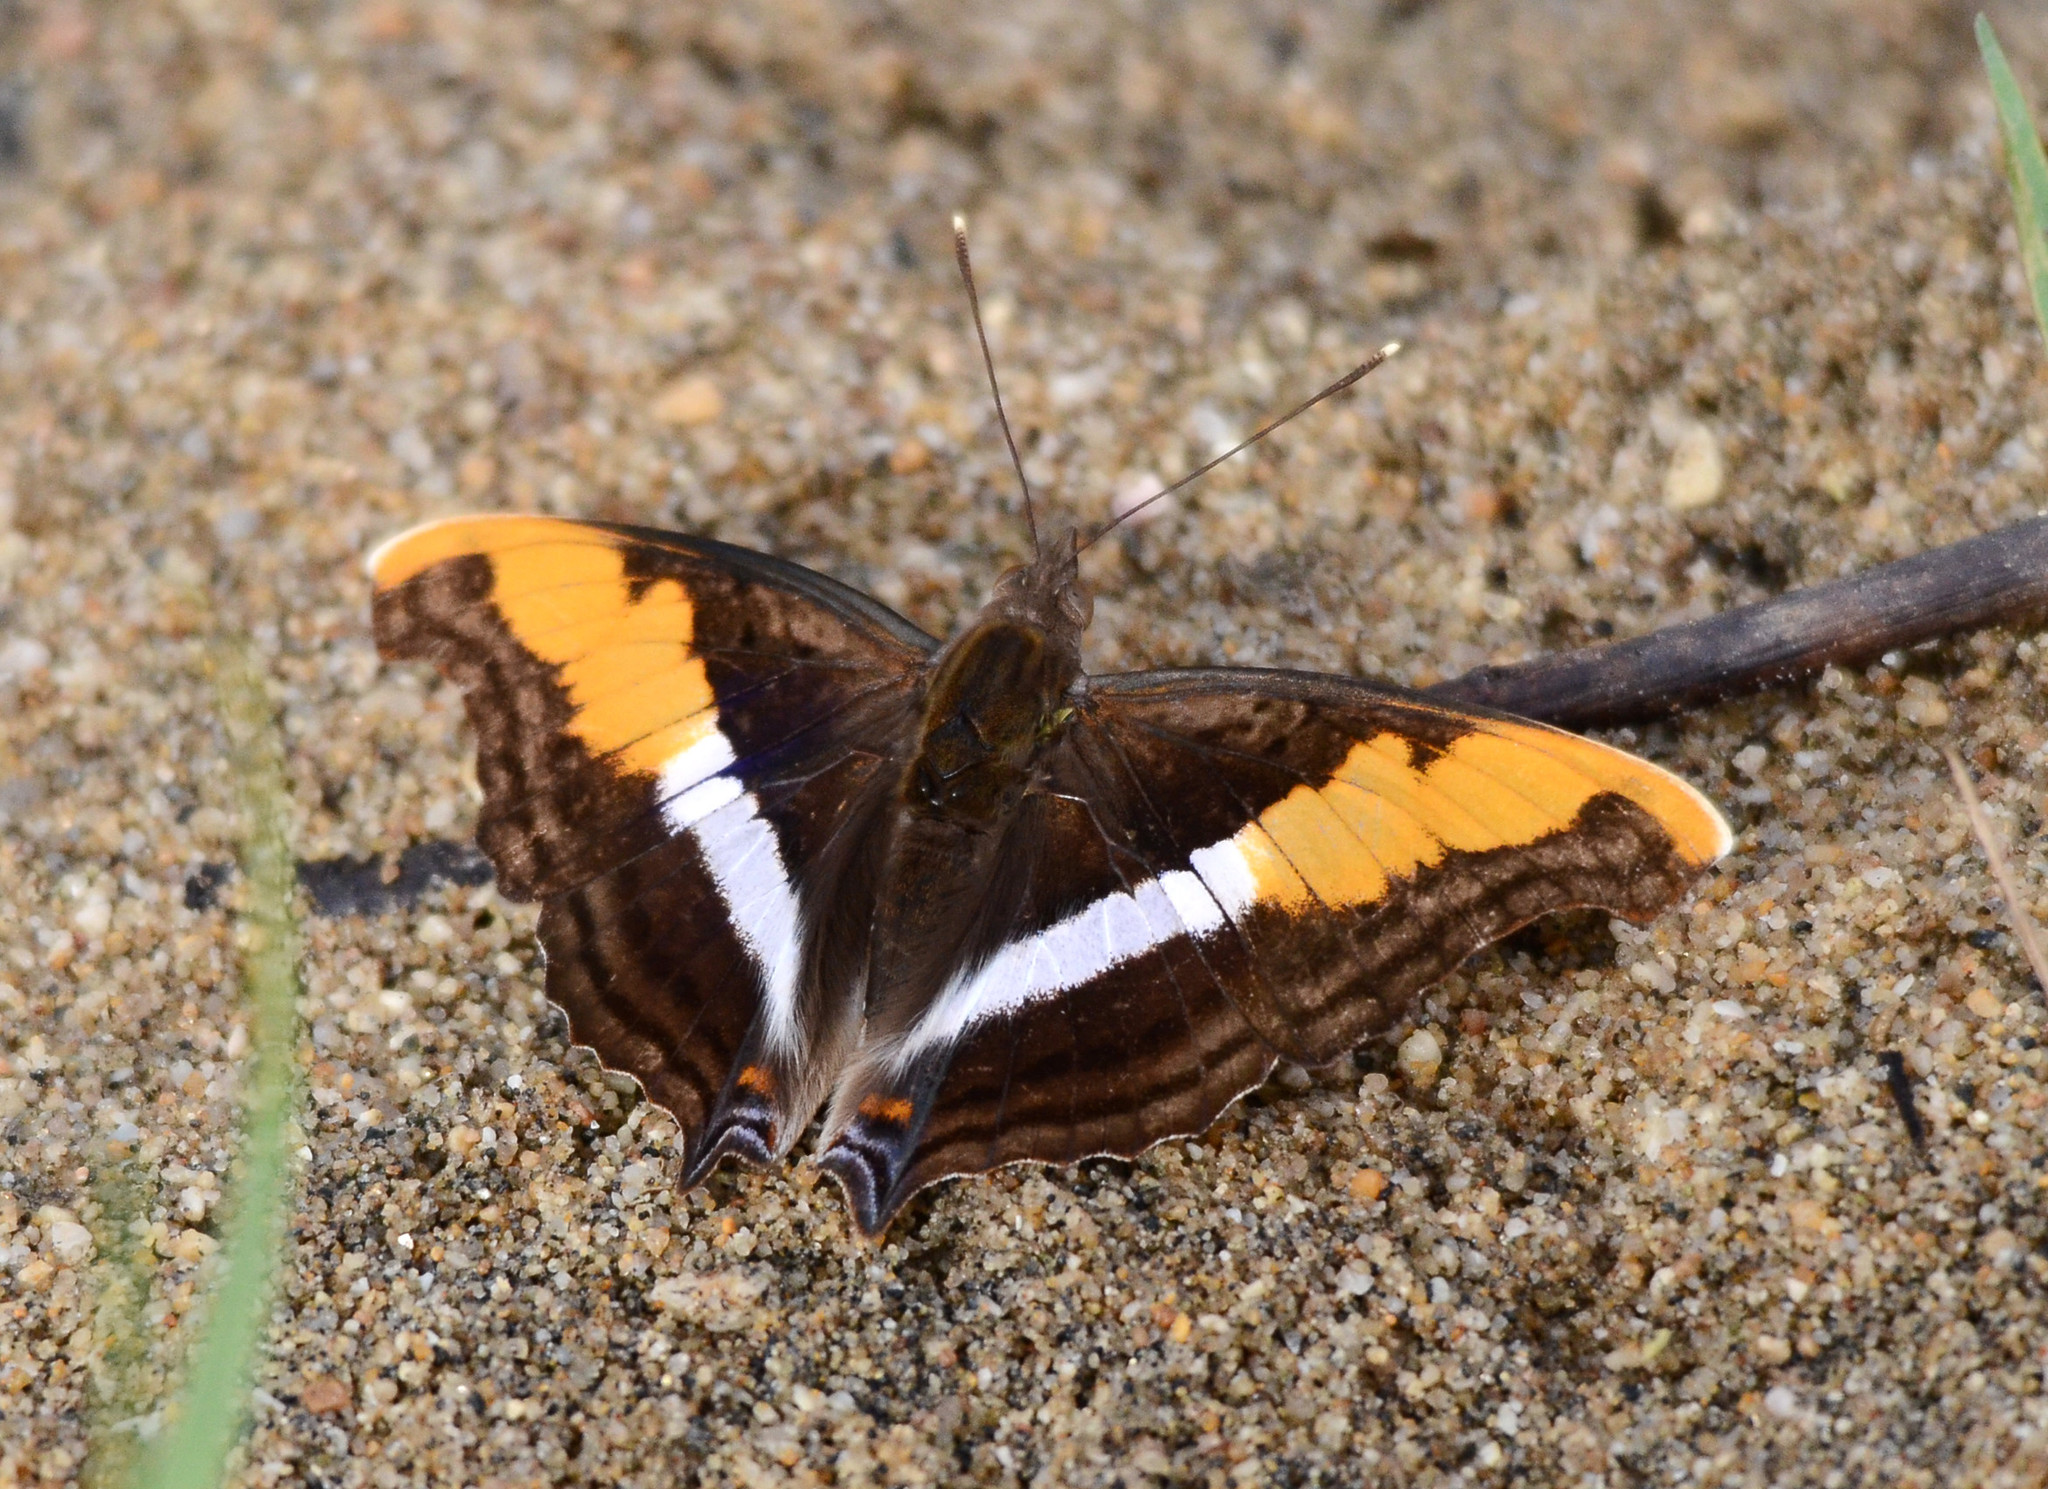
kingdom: Animalia
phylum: Arthropoda
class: Insecta
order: Lepidoptera
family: Nymphalidae
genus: Doxocopa
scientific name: Doxocopa laure
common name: Silver emperor
